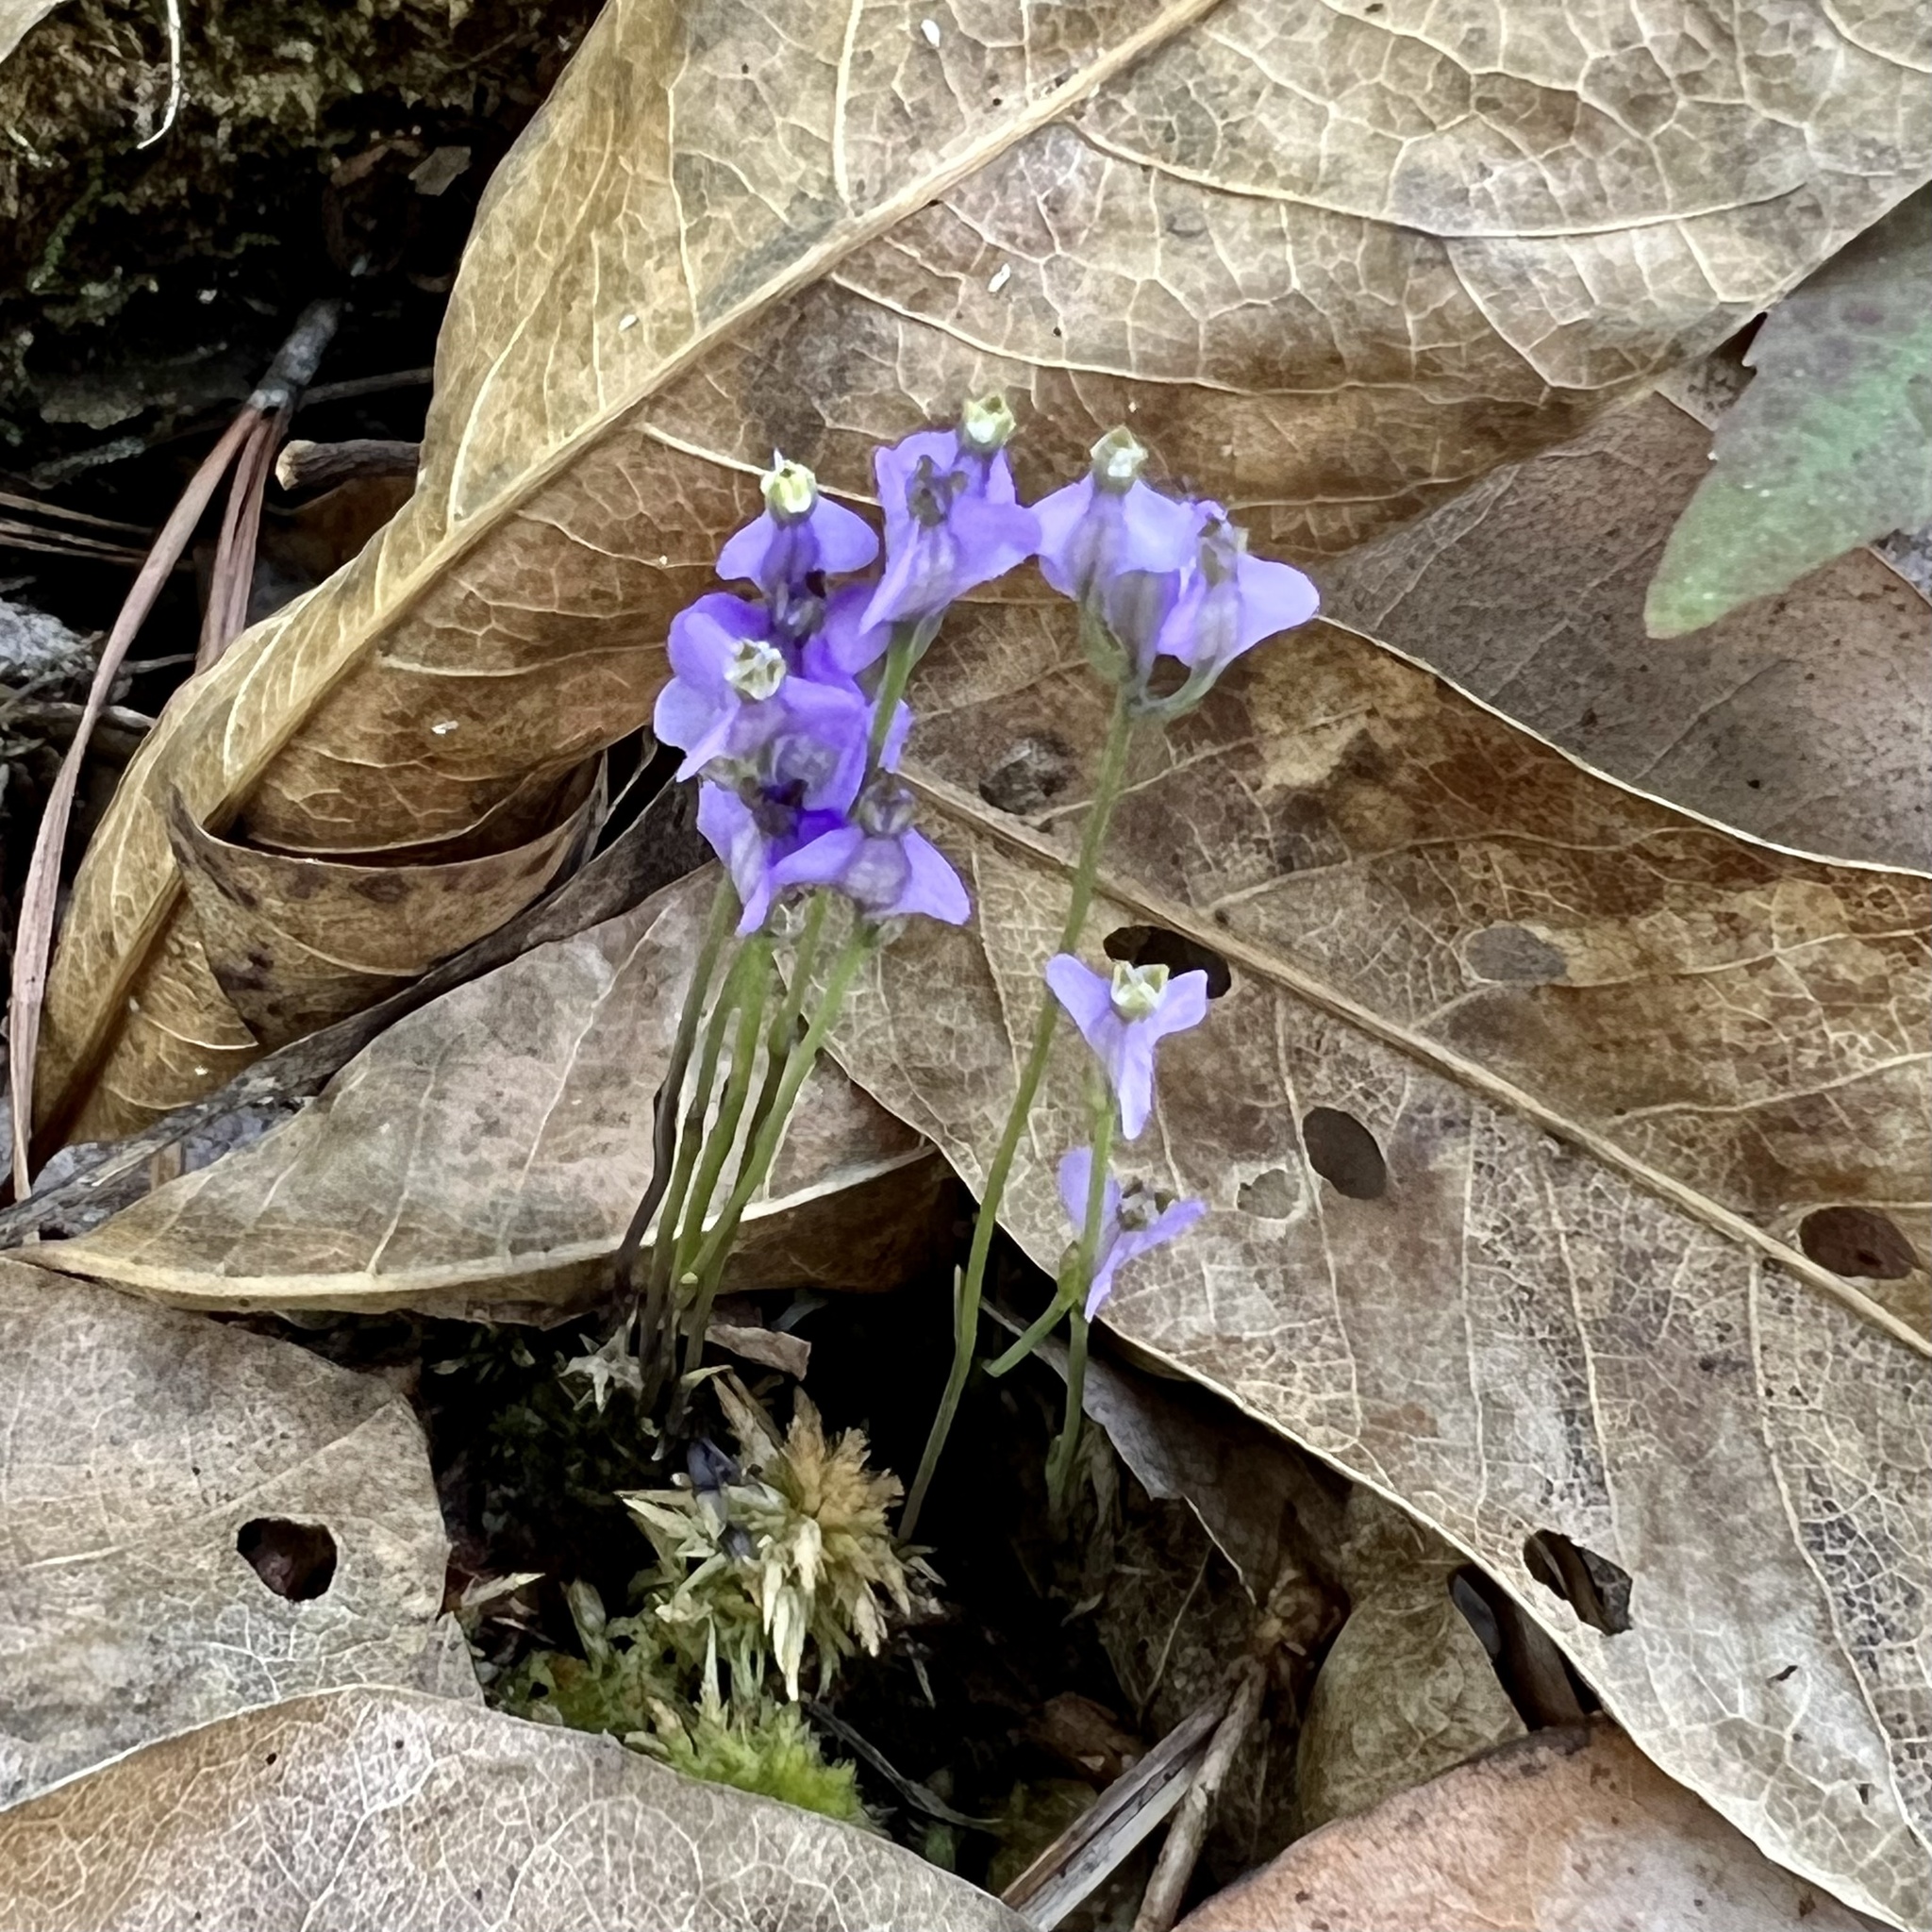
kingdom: Plantae
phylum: Tracheophyta
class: Liliopsida
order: Dioscoreales
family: Burmanniaceae
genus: Burmannia
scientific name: Burmannia biflora
